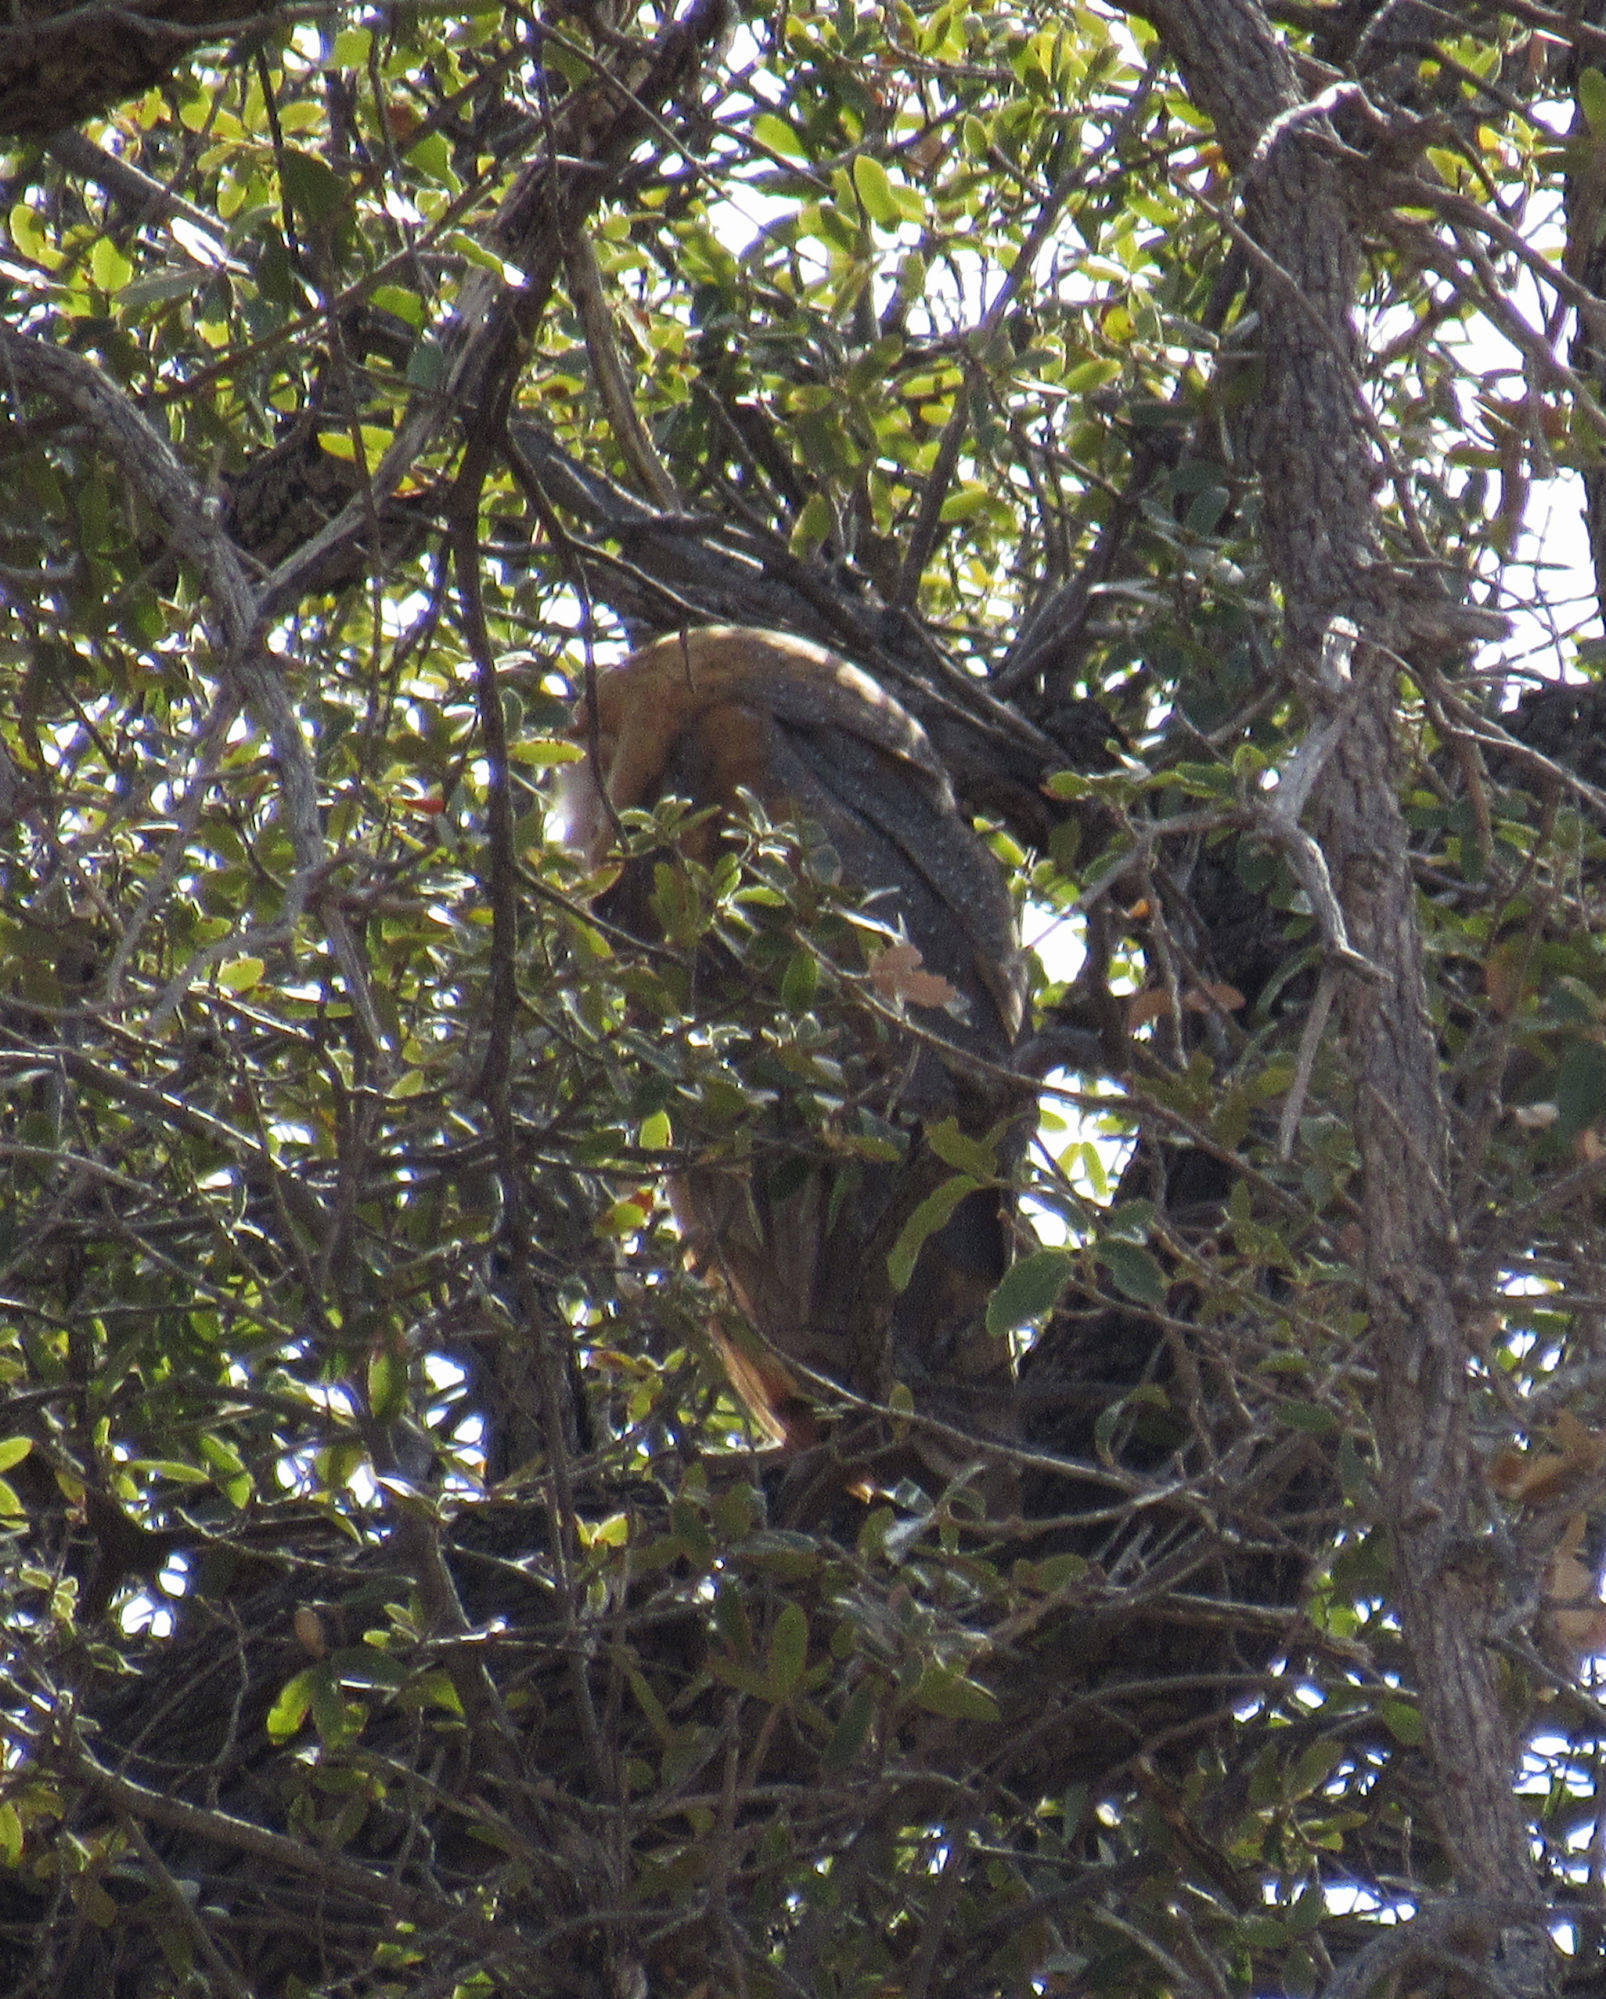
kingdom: Animalia
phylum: Chordata
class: Aves
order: Strigiformes
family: Tytonidae
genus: Tyto
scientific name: Tyto alba
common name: Barn owl
